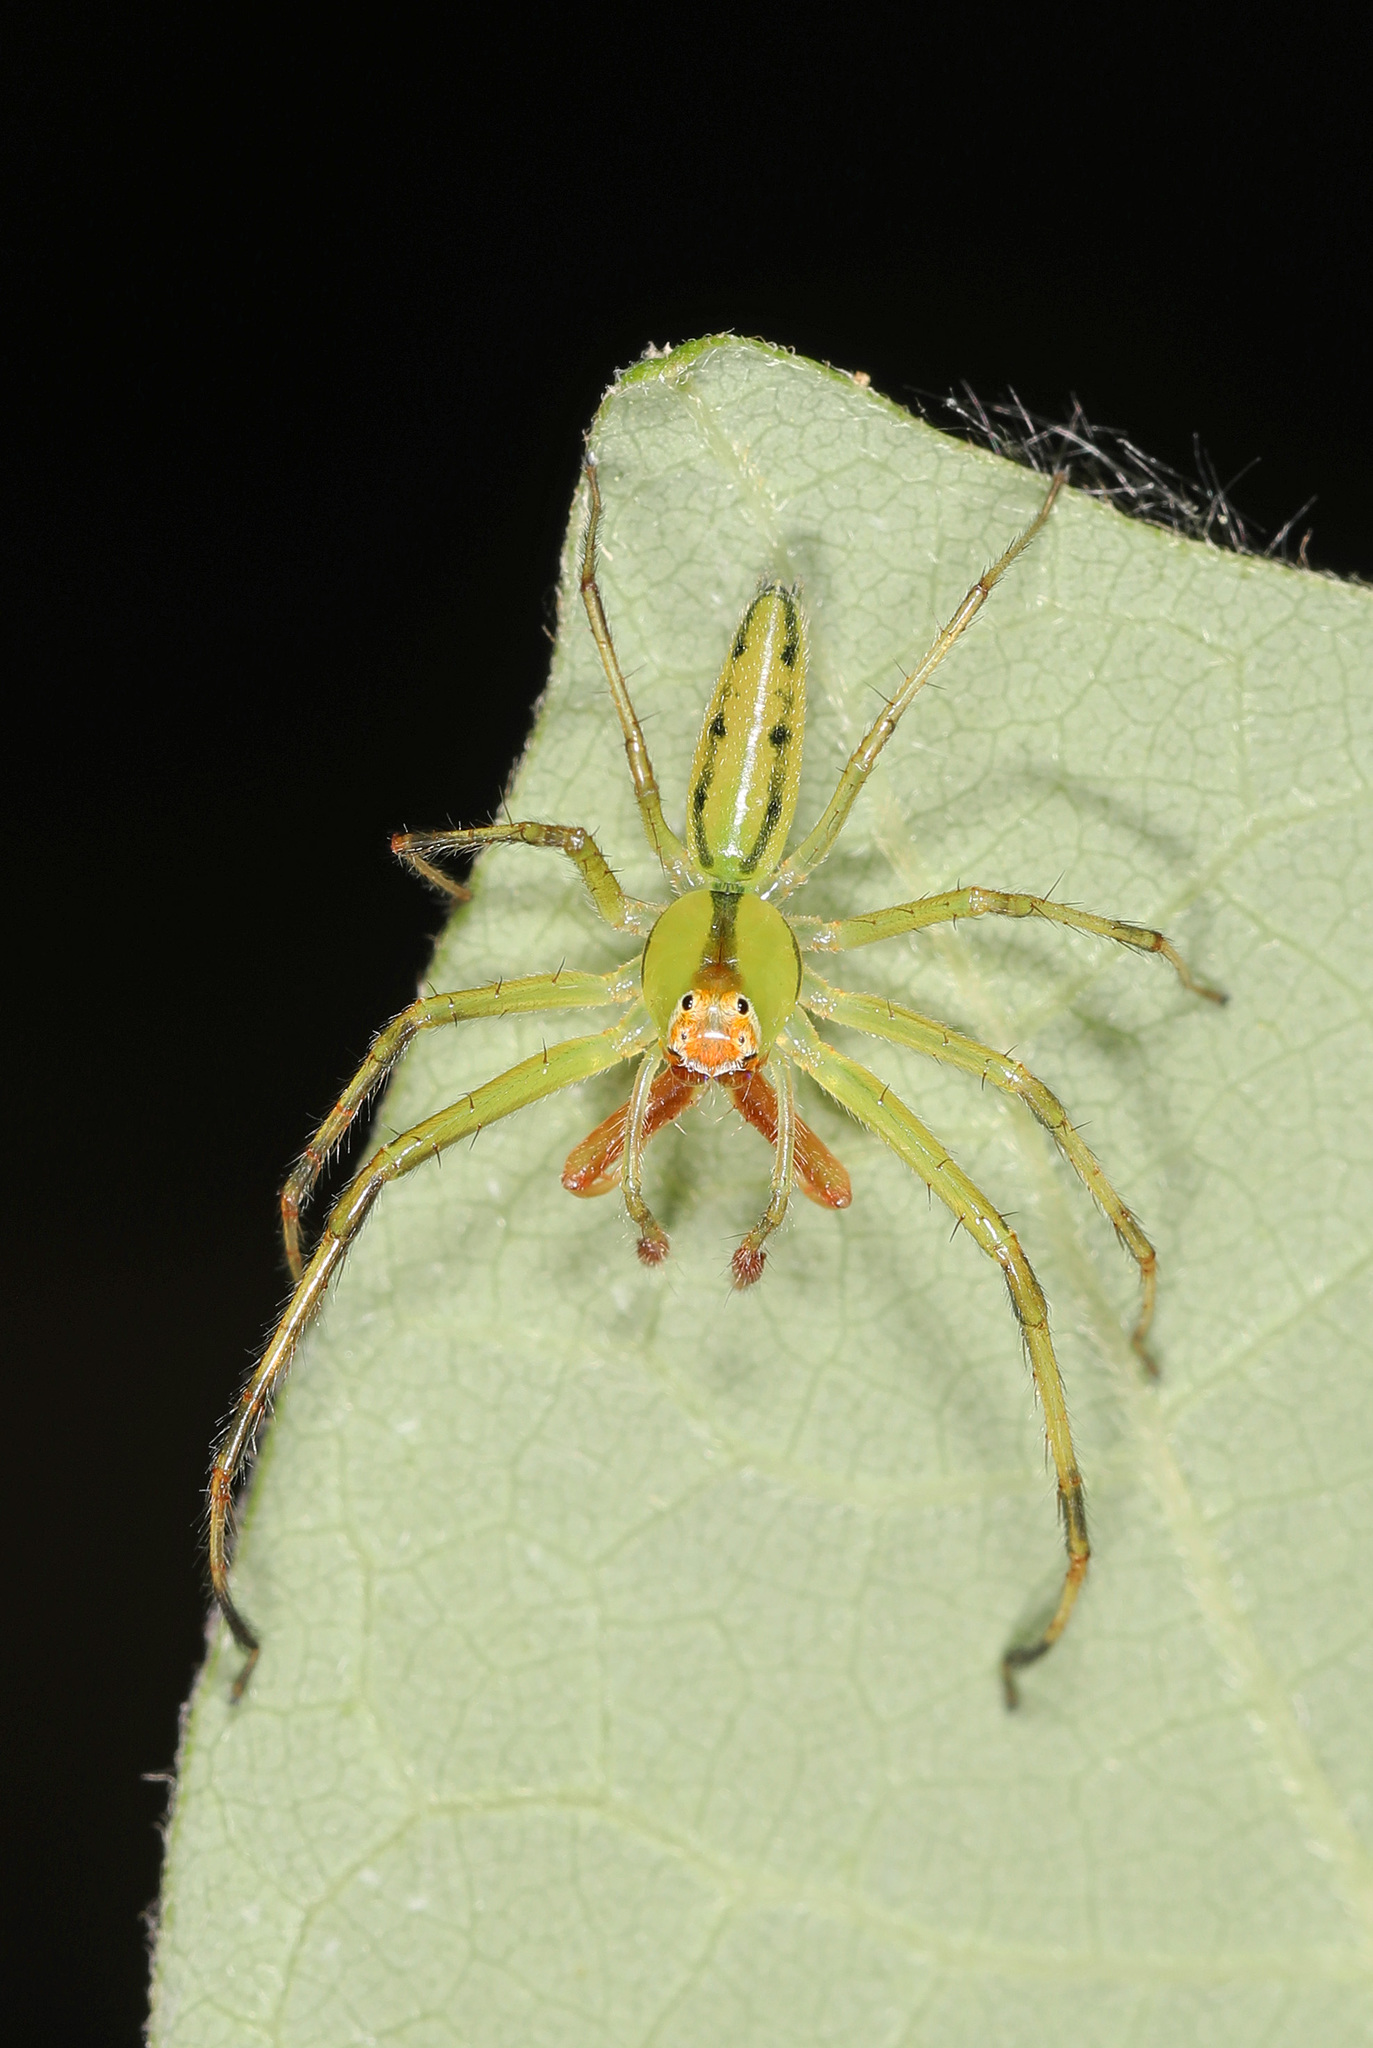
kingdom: Animalia
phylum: Arthropoda
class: Arachnida
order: Araneae
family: Salticidae
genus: Lyssomanes
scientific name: Lyssomanes viridis
